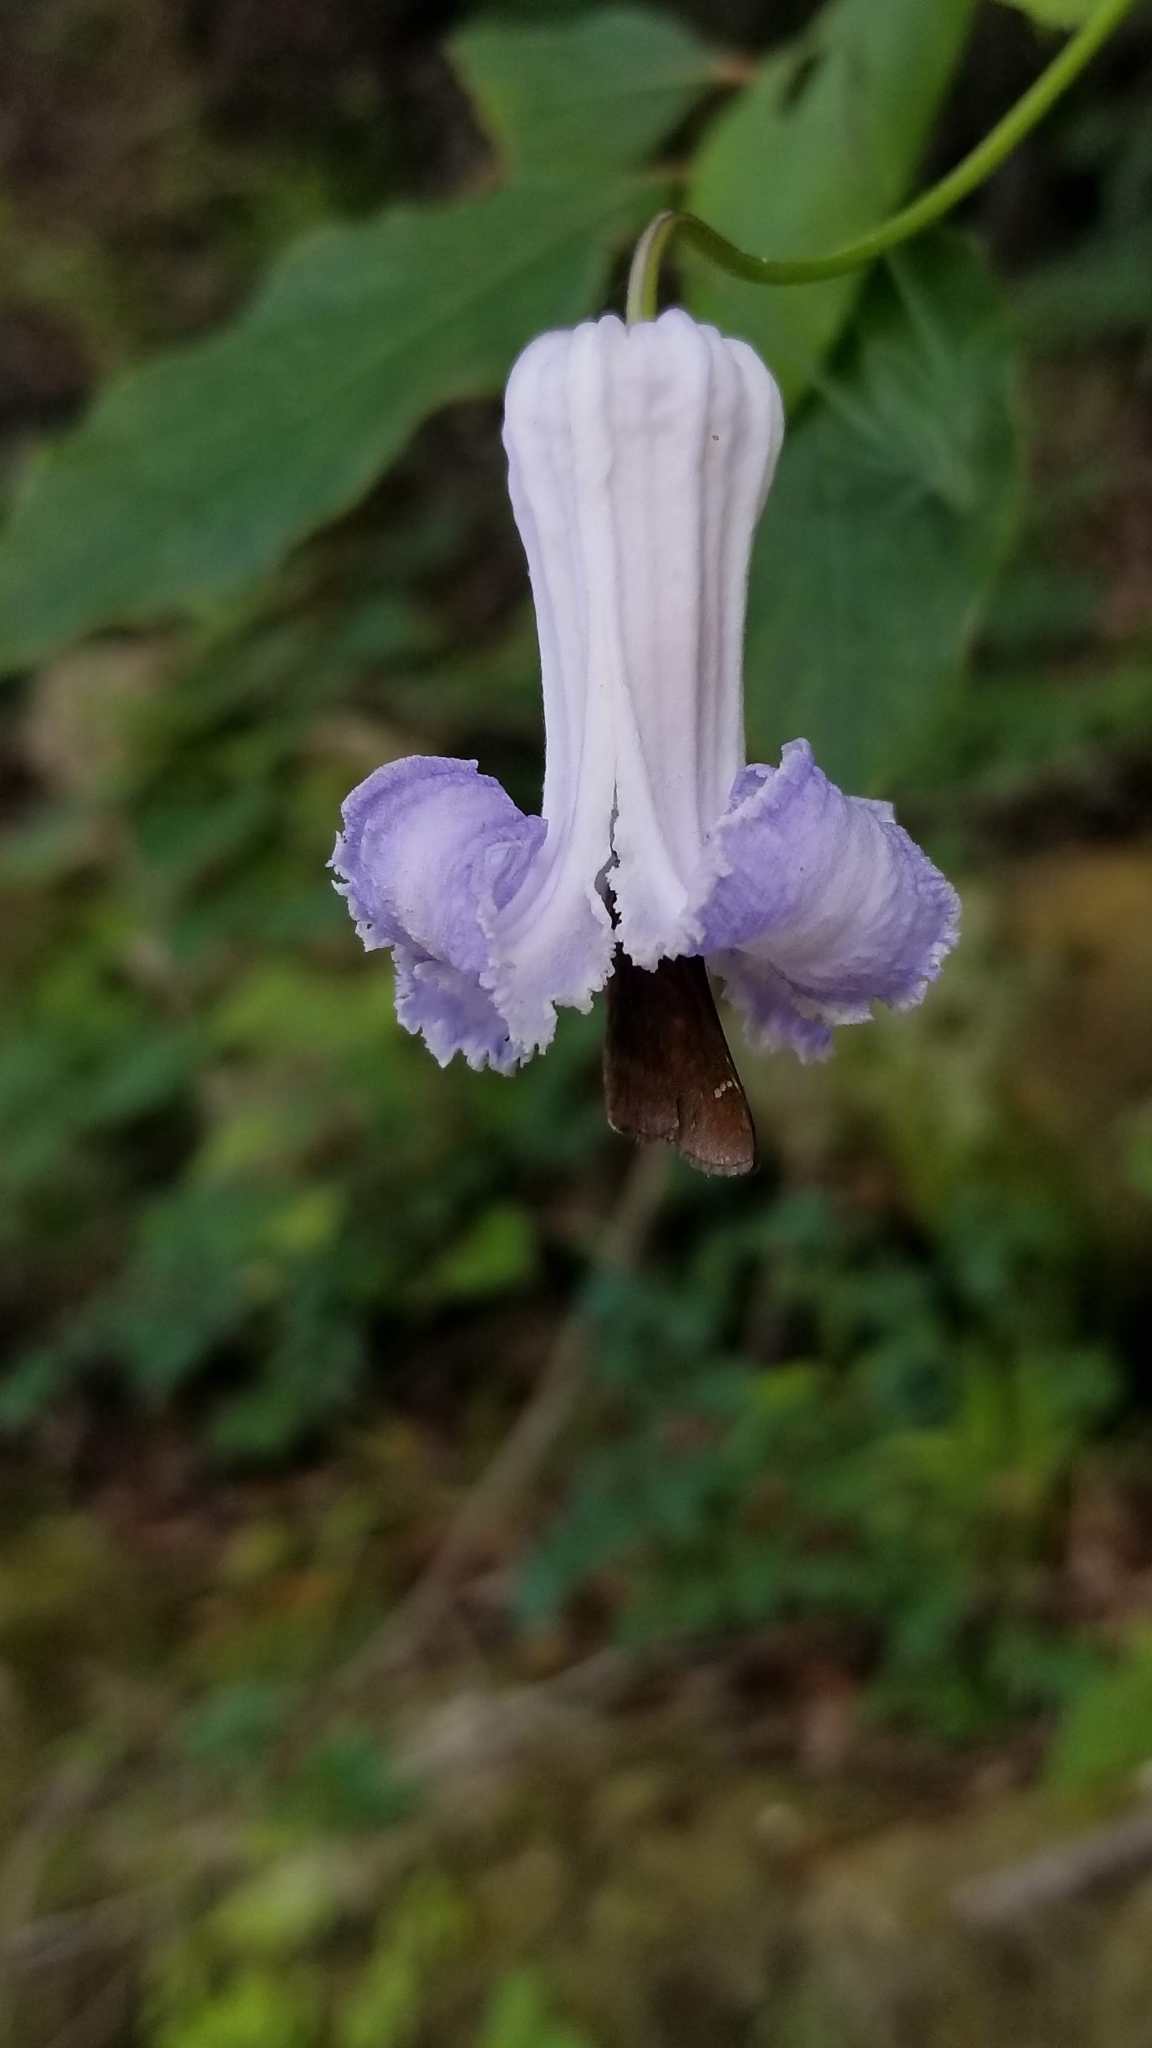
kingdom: Plantae
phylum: Tracheophyta
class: Magnoliopsida
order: Ranunculales
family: Ranunculaceae
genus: Clematis
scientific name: Clematis crispa
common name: Curly clematis
